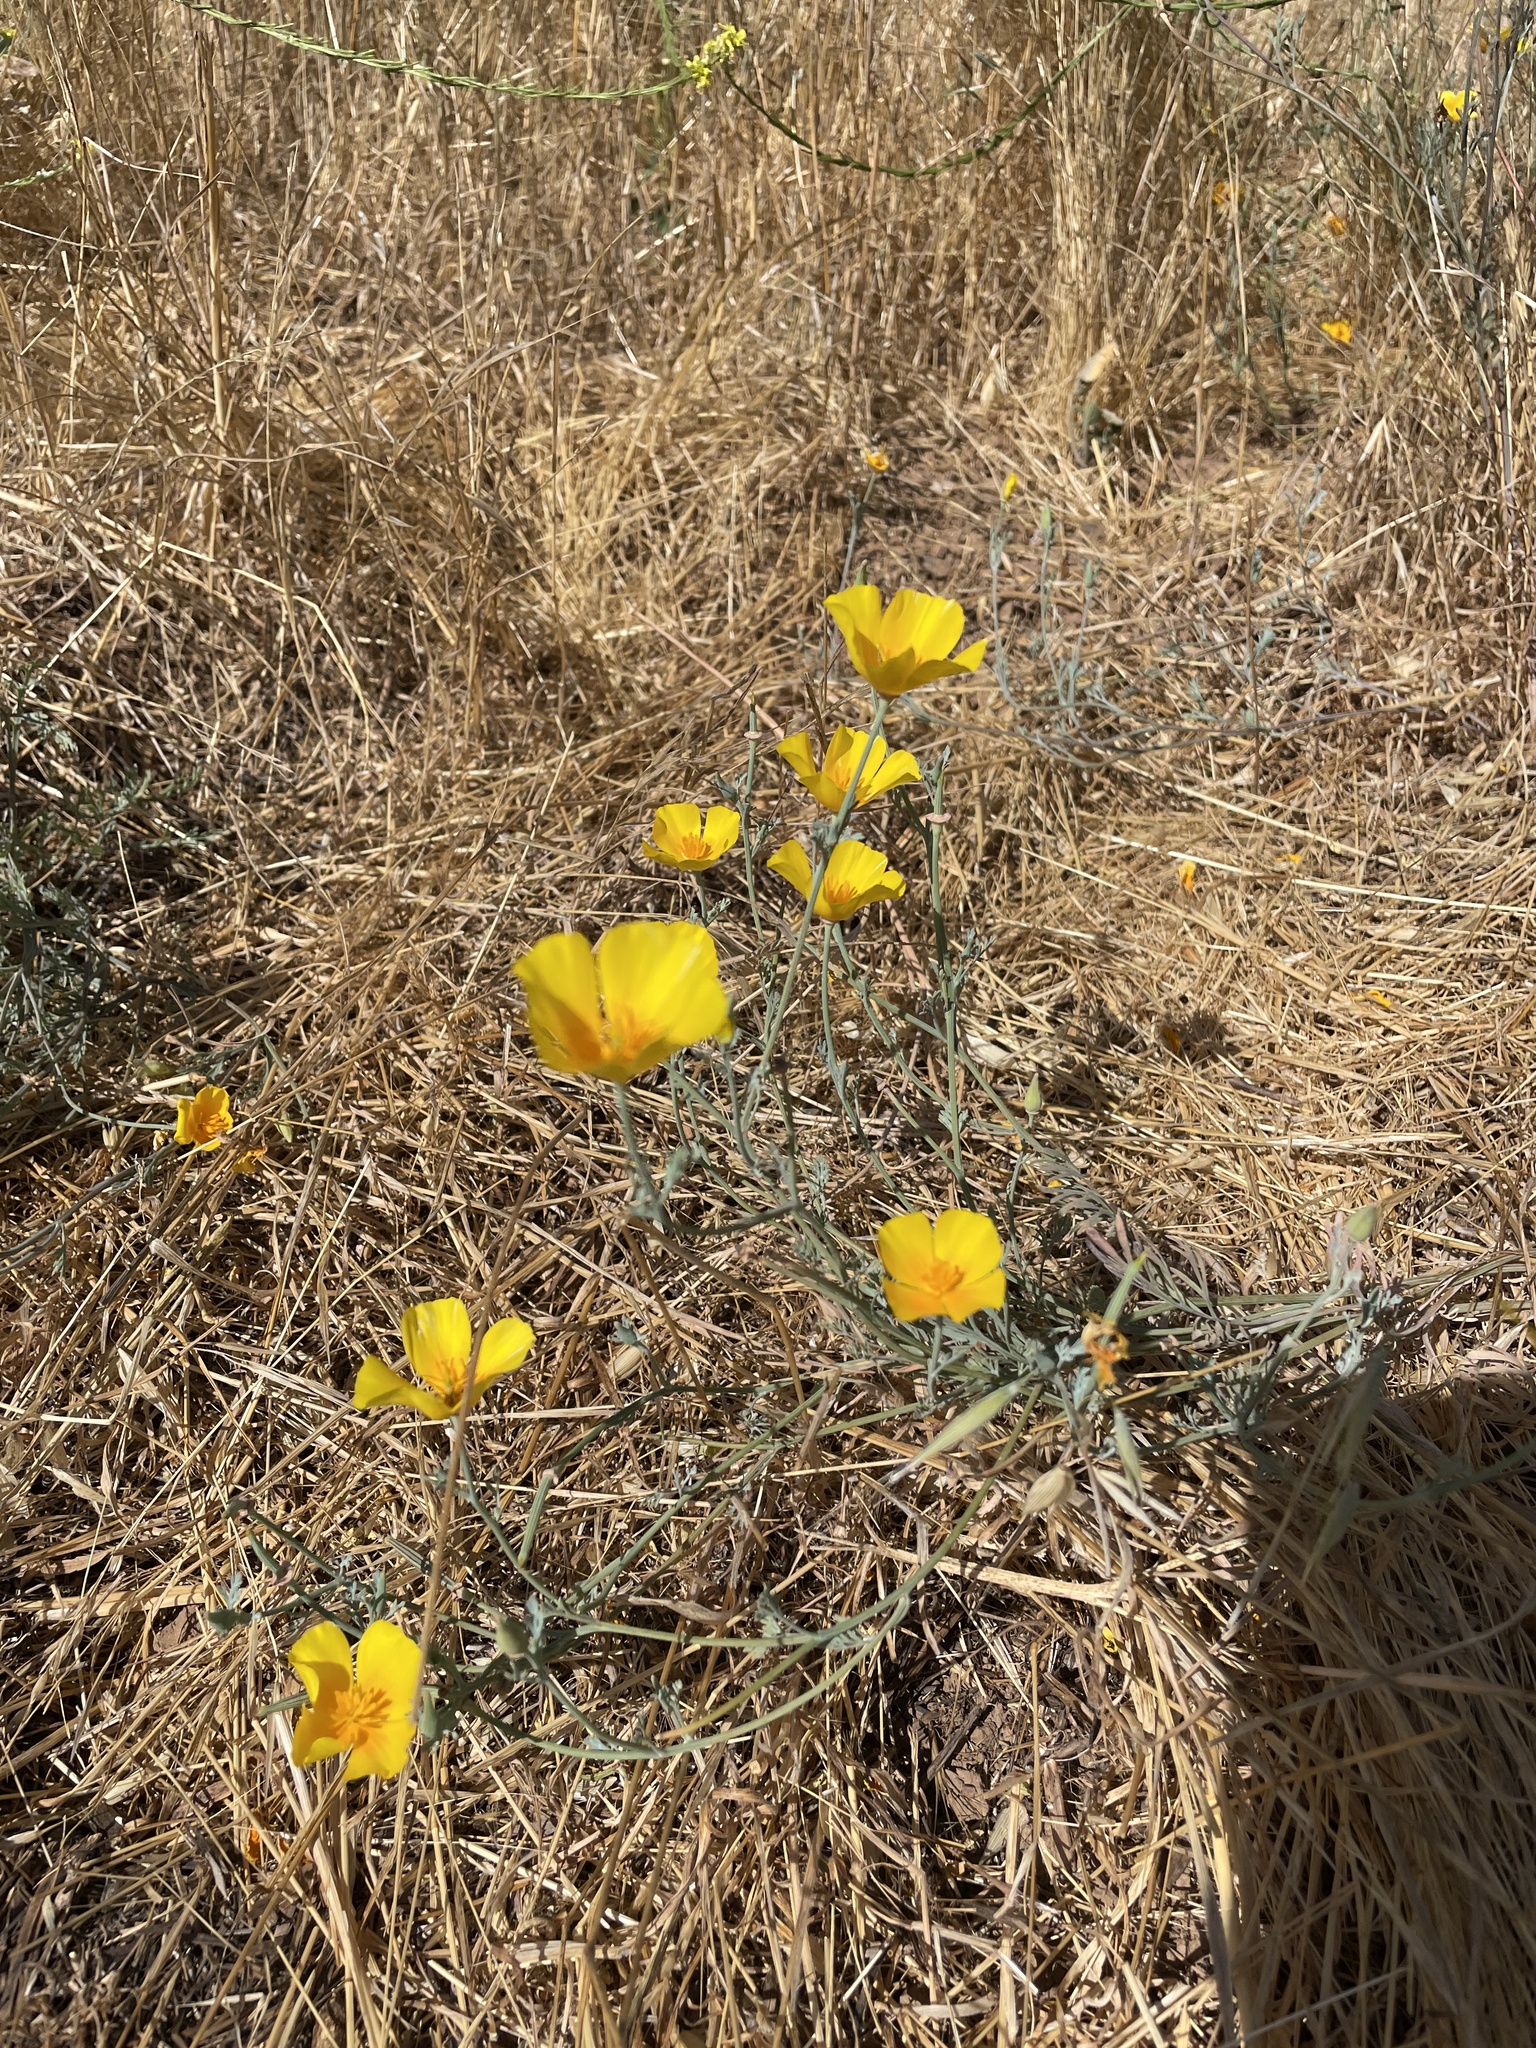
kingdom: Plantae
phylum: Tracheophyta
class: Magnoliopsida
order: Ranunculales
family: Papaveraceae
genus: Eschscholzia
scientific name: Eschscholzia californica
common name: California poppy
